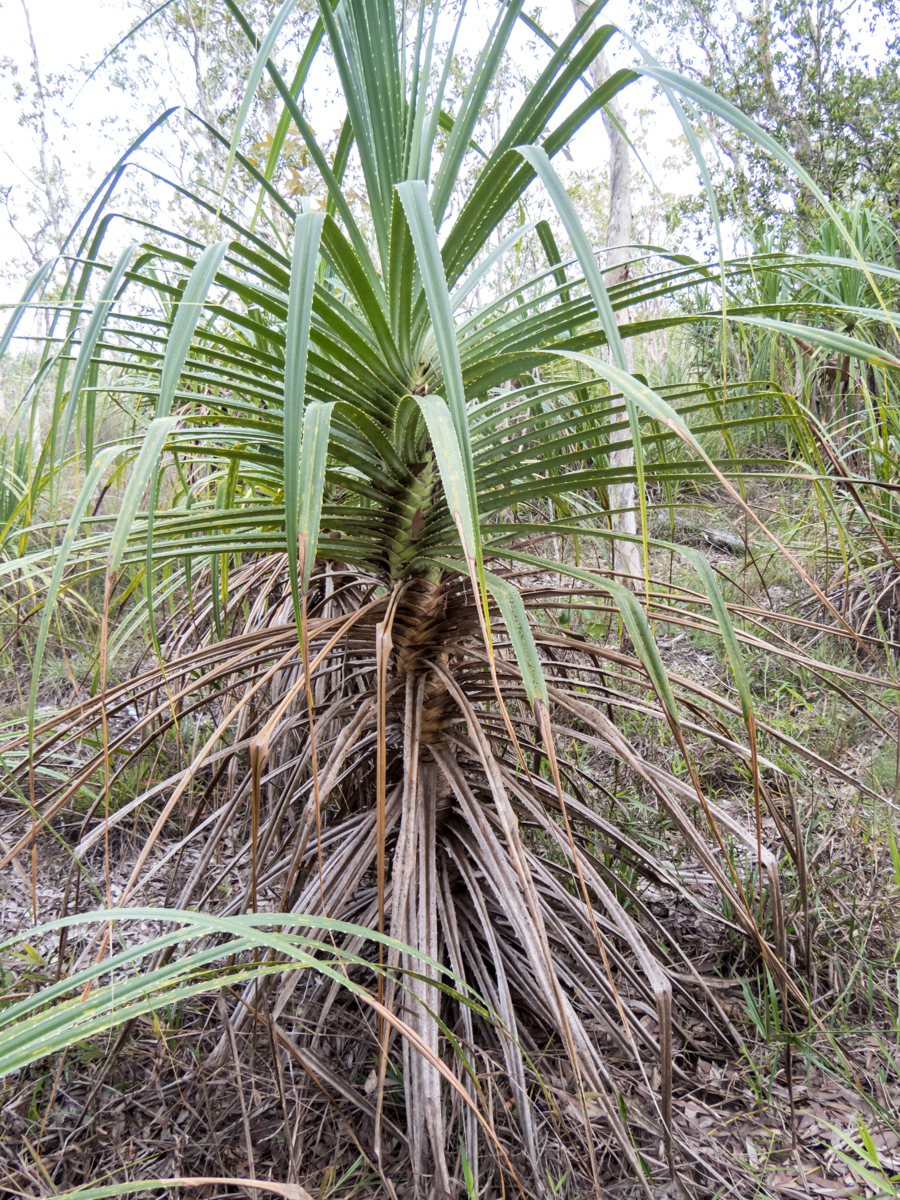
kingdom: Plantae
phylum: Tracheophyta
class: Liliopsida
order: Pandanales
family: Pandanaceae
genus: Pandanus
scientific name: Pandanus odorifer
